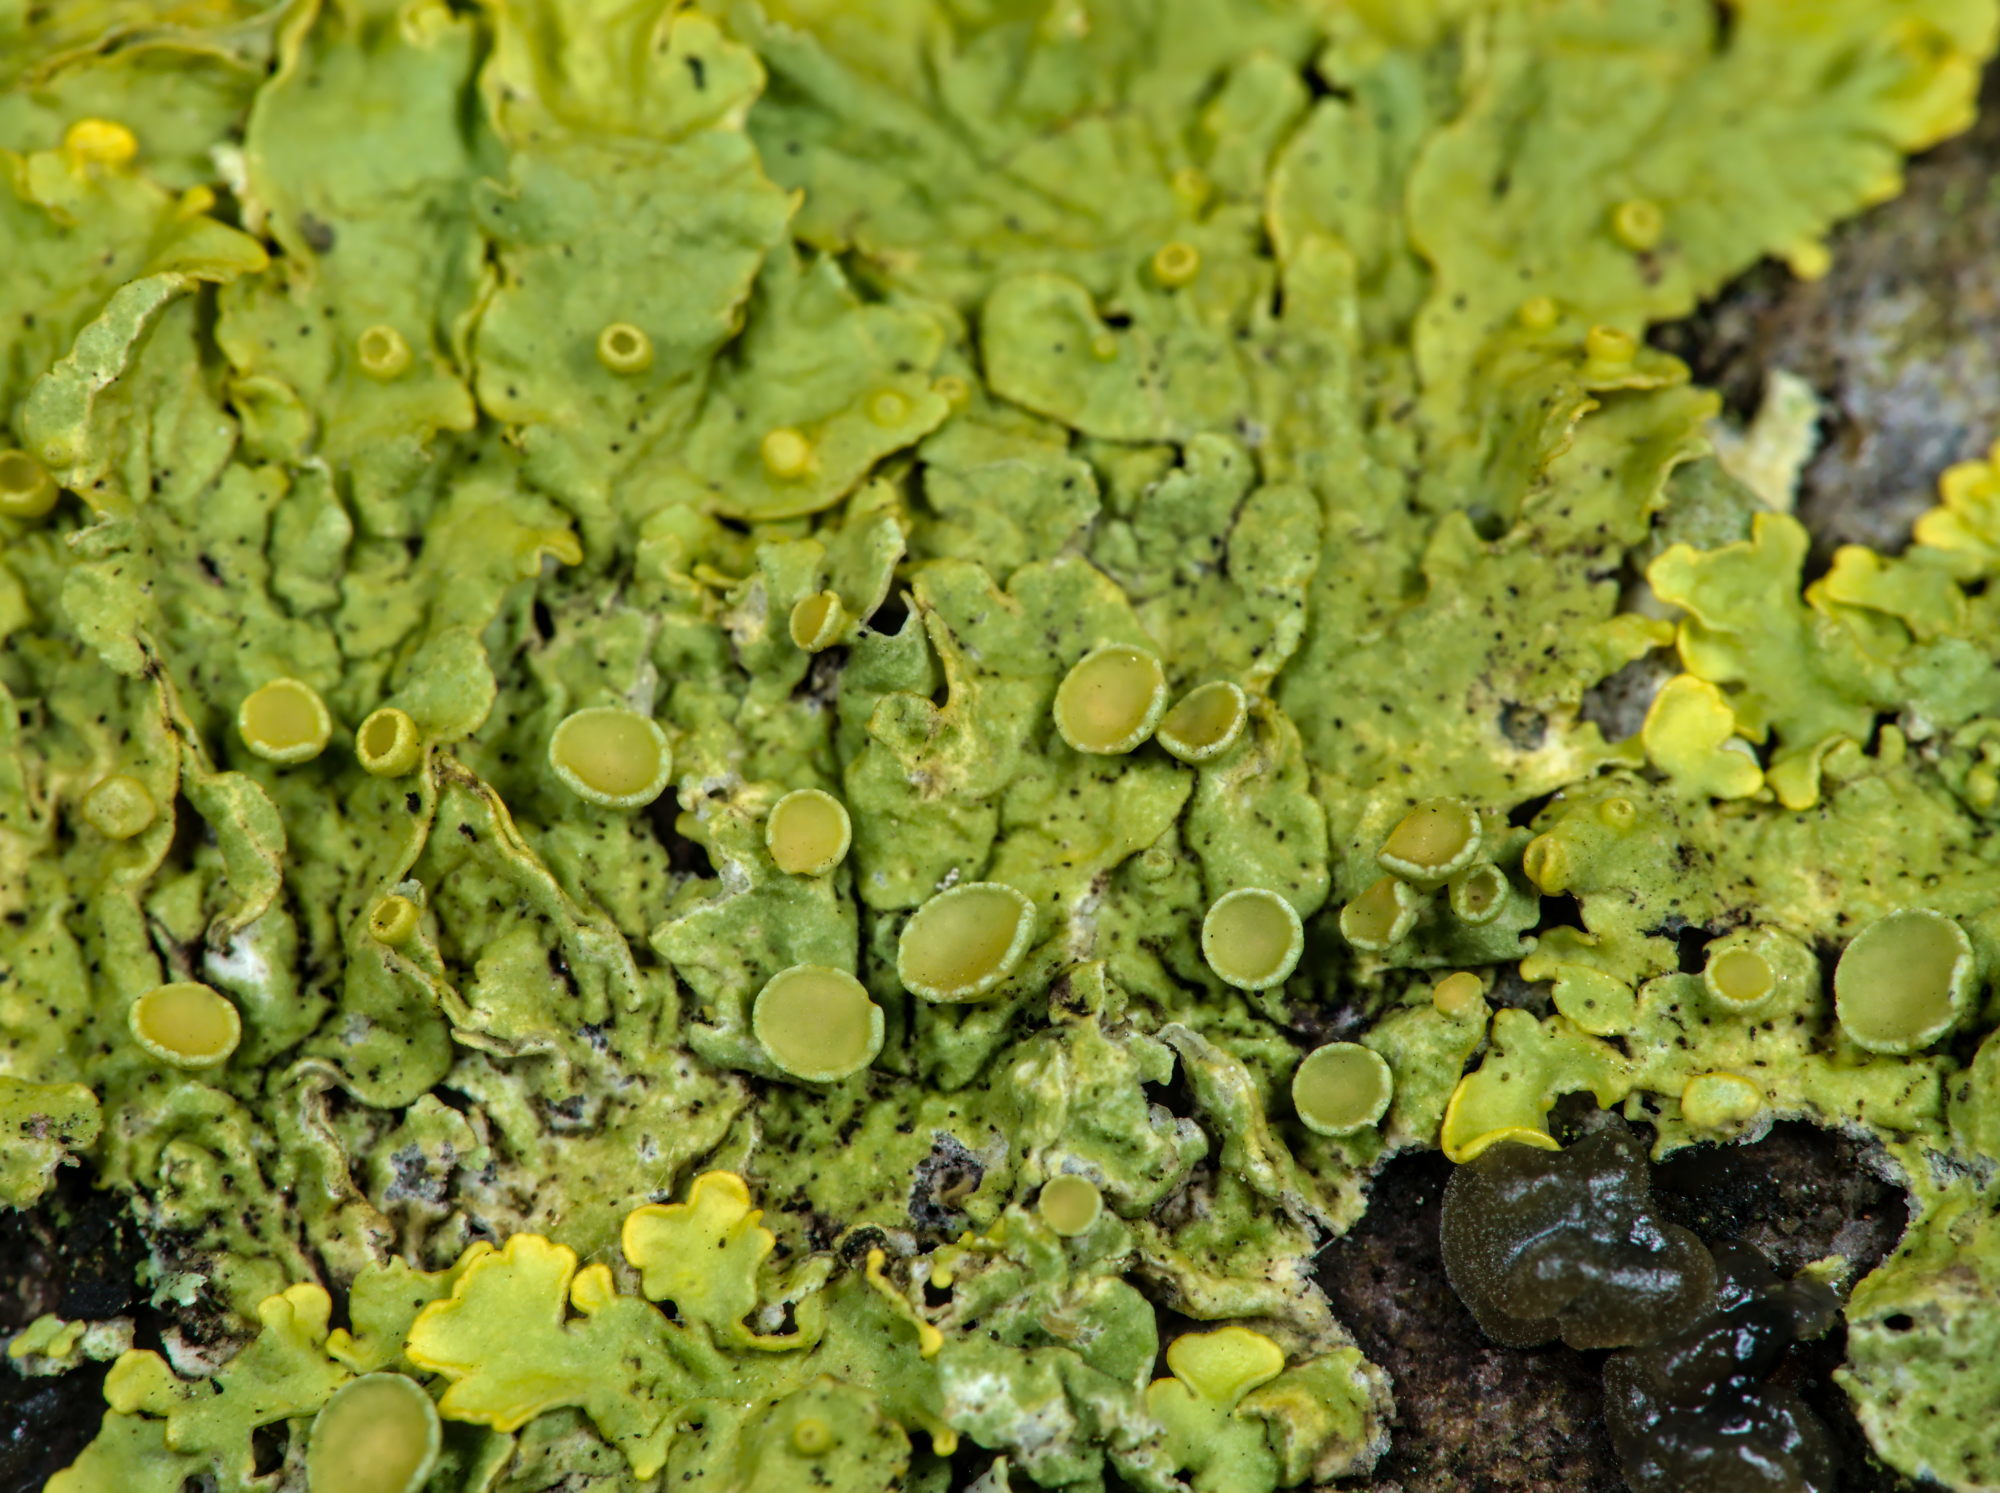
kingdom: Fungi
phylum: Ascomycota
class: Lecanoromycetes
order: Teloschistales
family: Teloschistaceae
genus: Xanthoria
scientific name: Xanthoria parietina
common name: Common orange lichen
